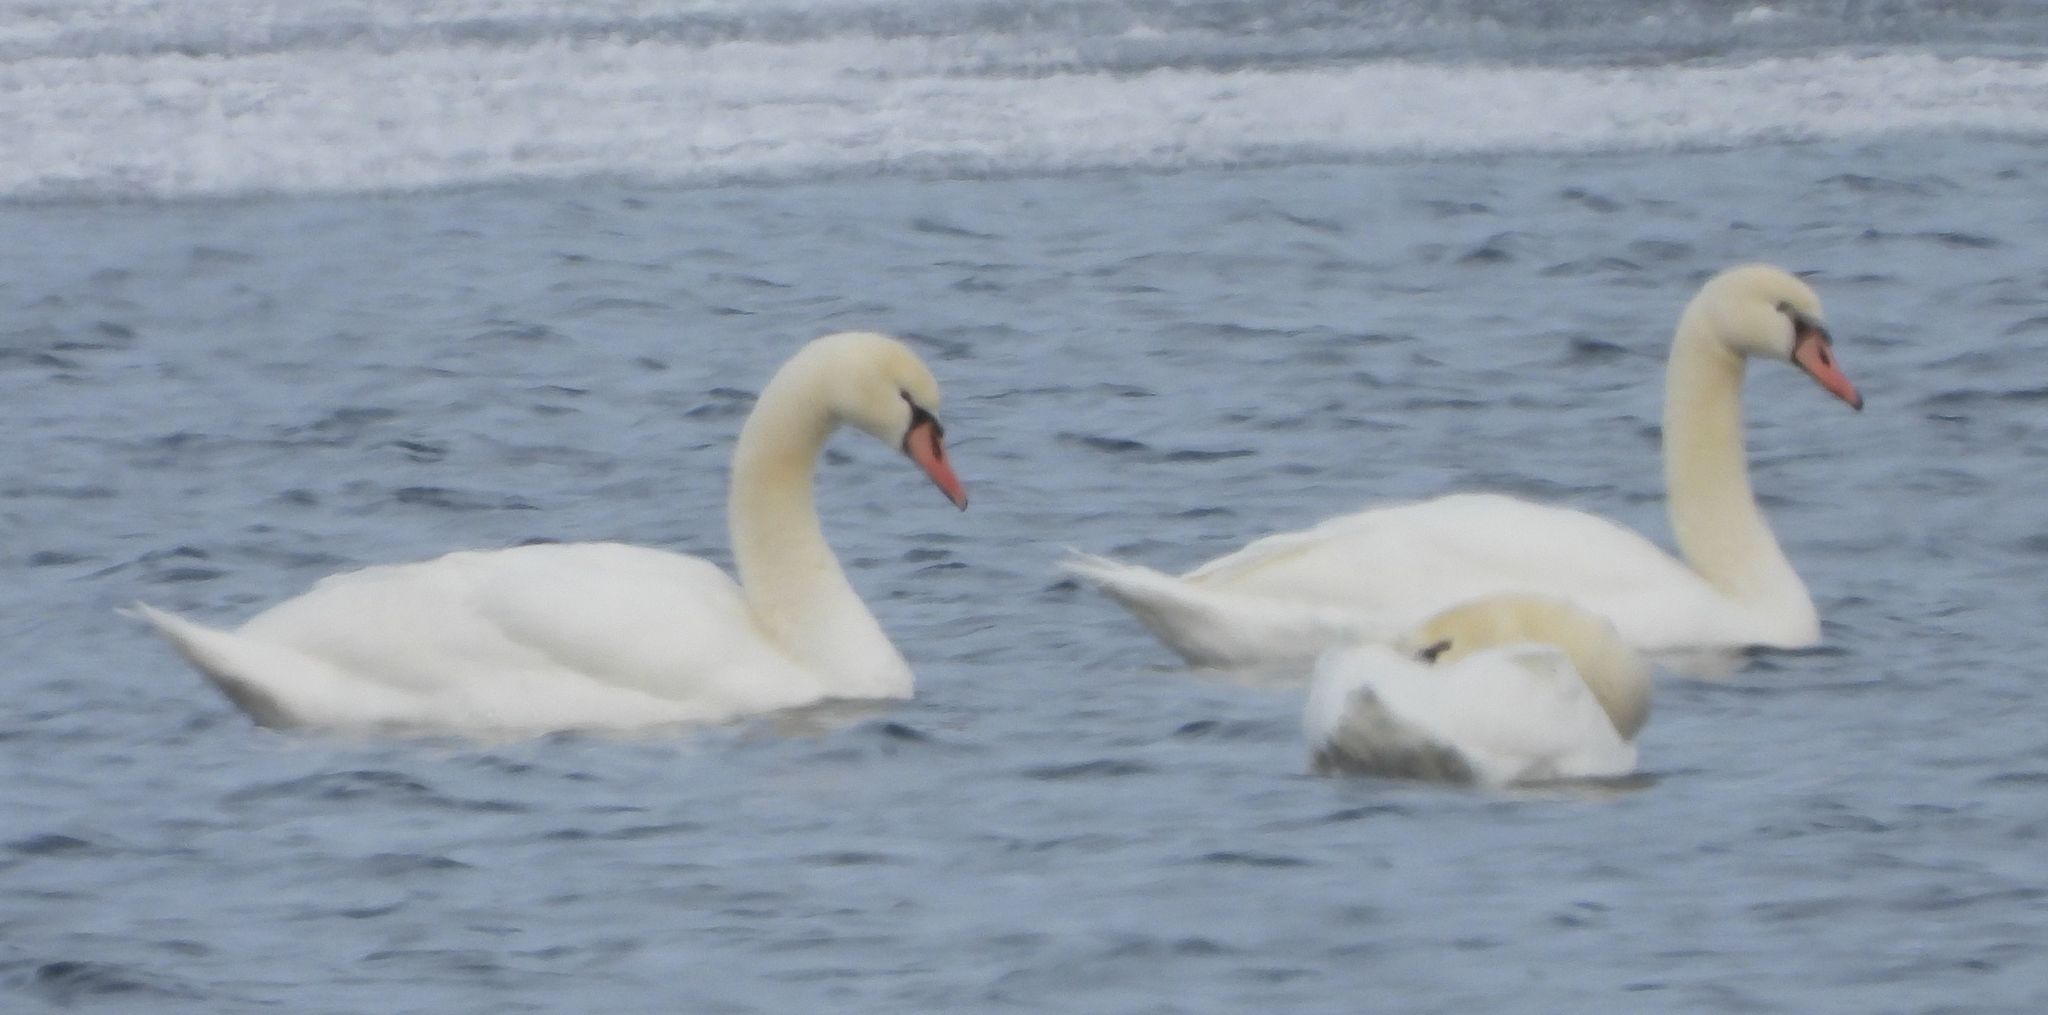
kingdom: Animalia
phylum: Chordata
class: Aves
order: Anseriformes
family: Anatidae
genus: Cygnus
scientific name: Cygnus olor
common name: Mute swan
